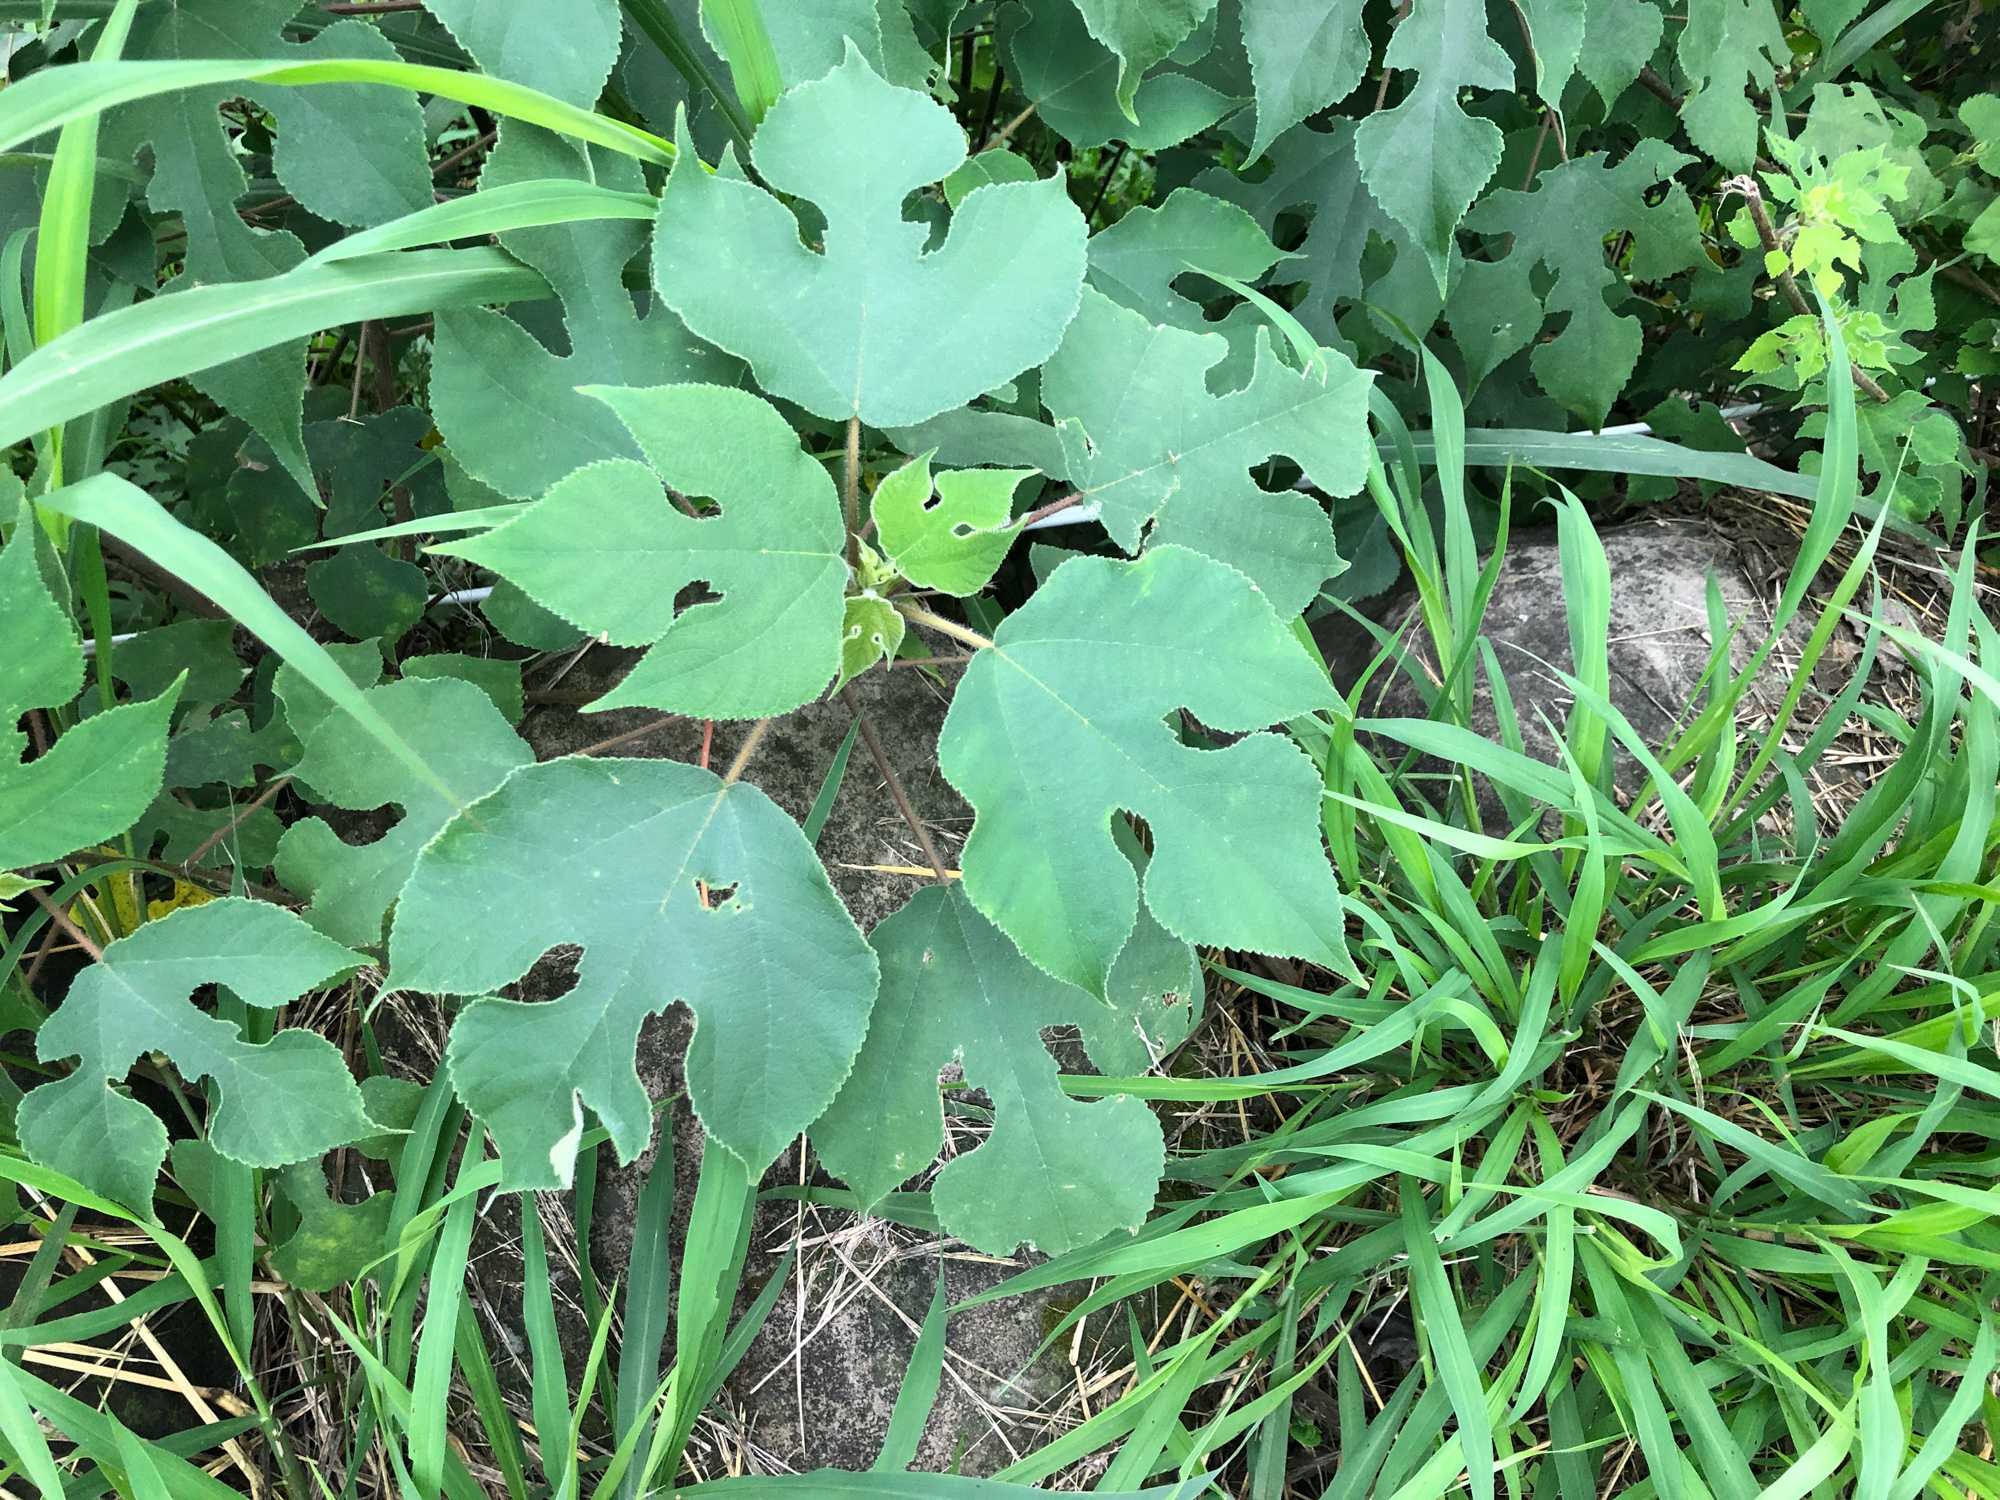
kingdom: Plantae
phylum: Tracheophyta
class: Magnoliopsida
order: Rosales
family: Moraceae
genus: Broussonetia
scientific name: Broussonetia papyrifera
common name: Paper mulberry
